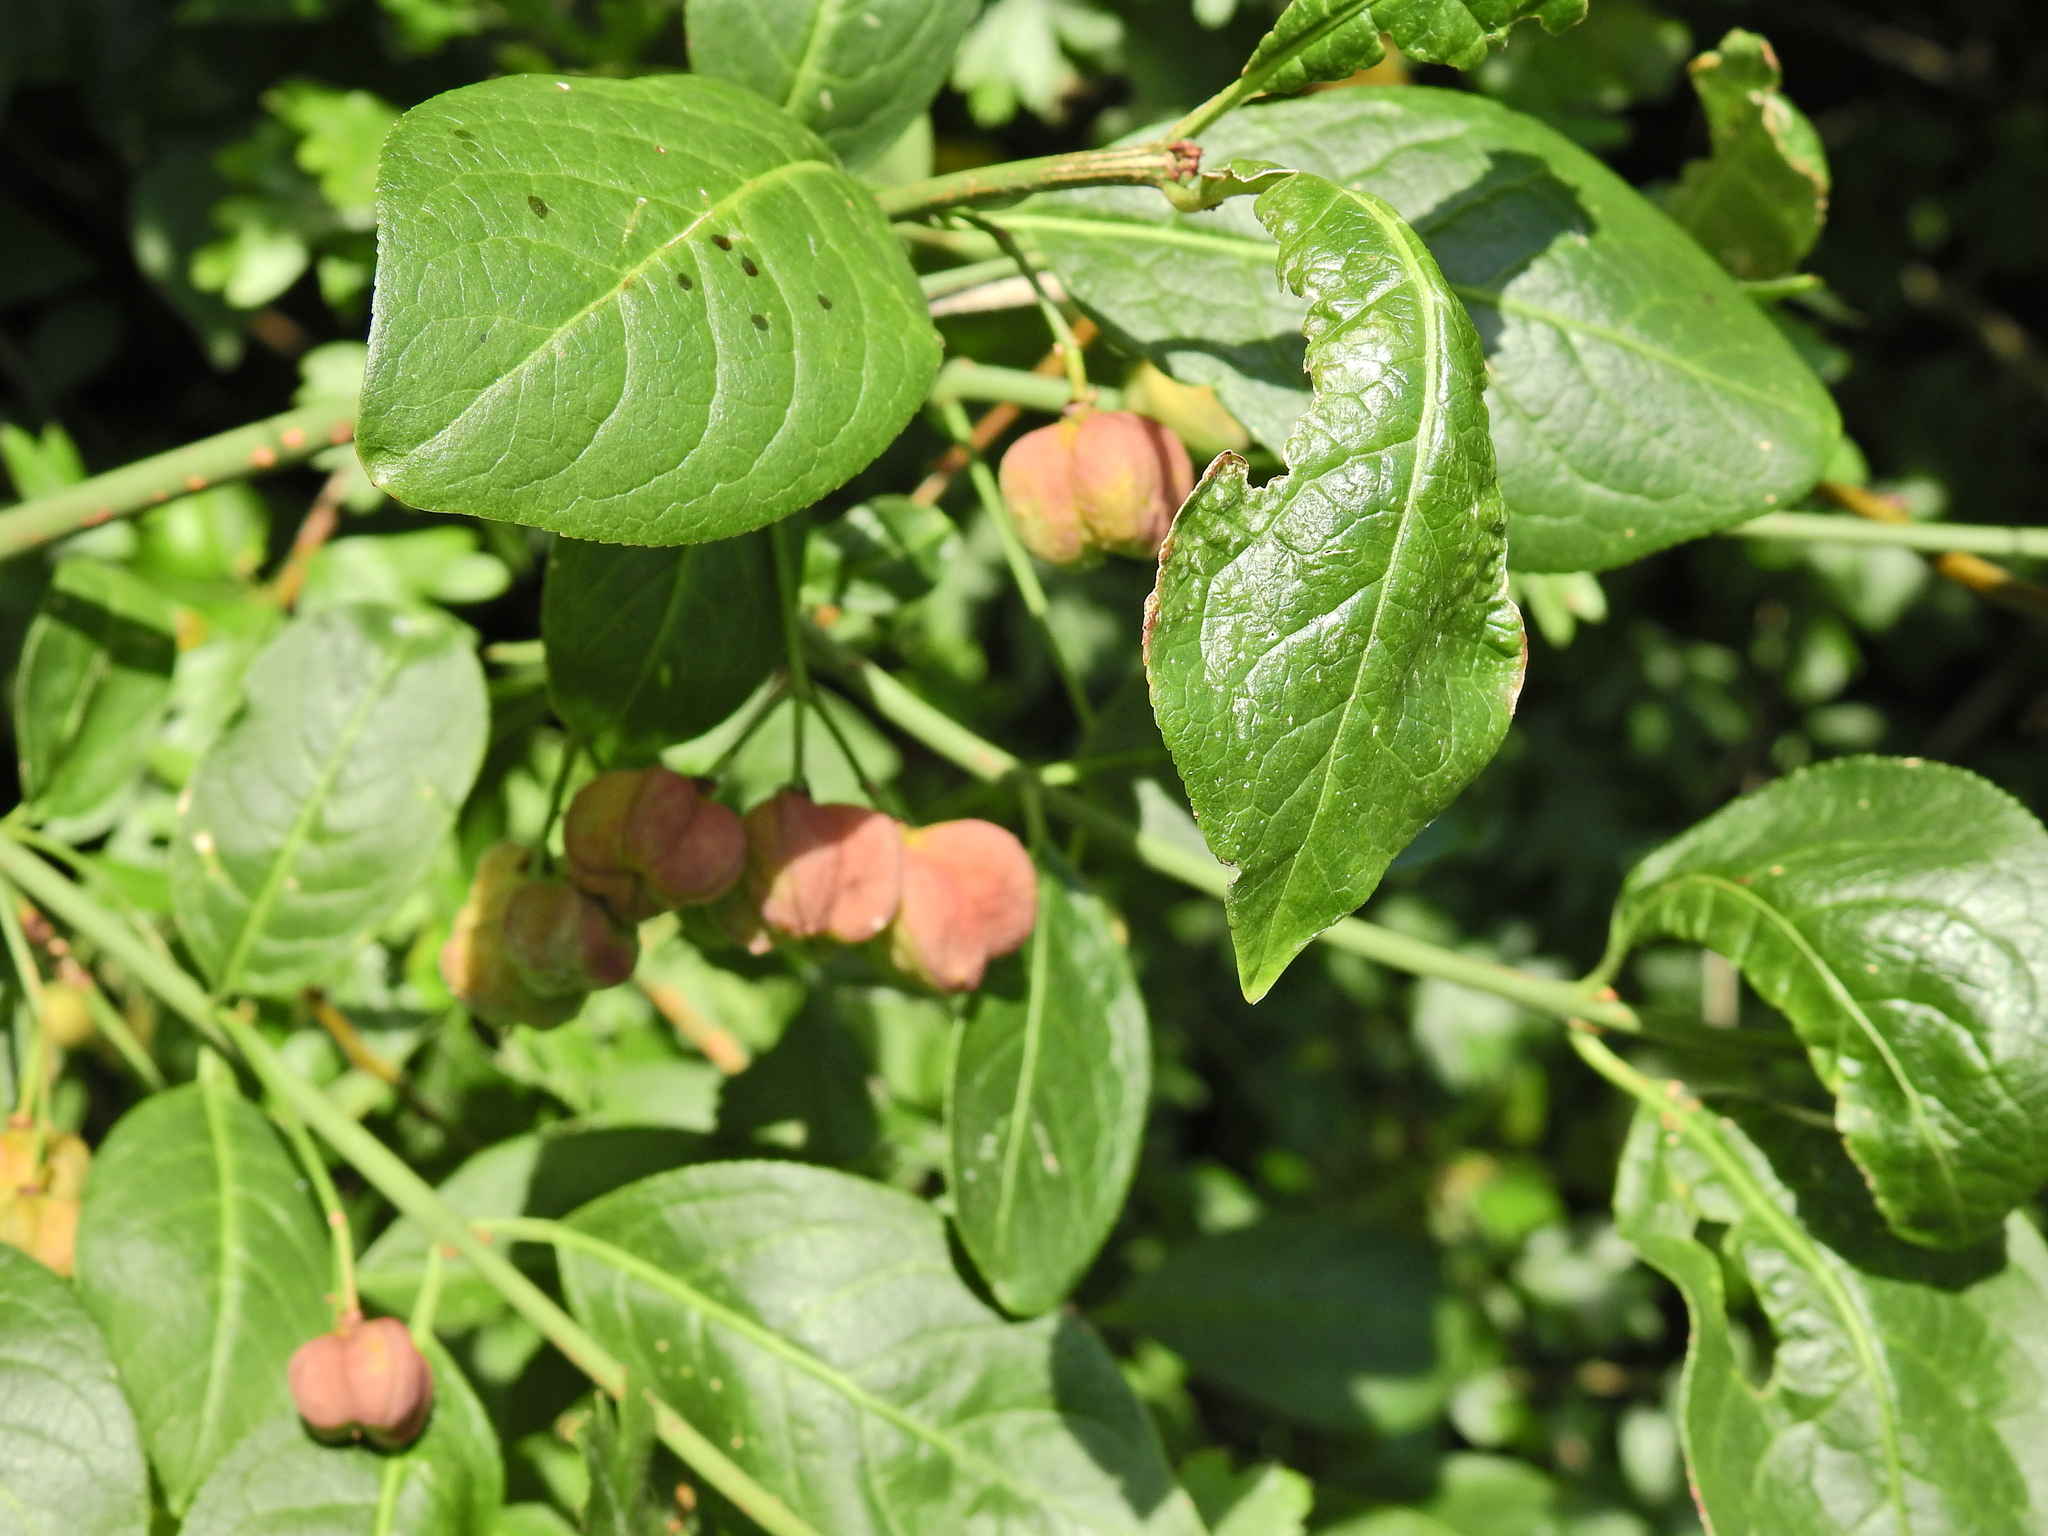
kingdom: Plantae
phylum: Tracheophyta
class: Magnoliopsida
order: Celastrales
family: Celastraceae
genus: Euonymus
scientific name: Euonymus europaeus
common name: Spindle
